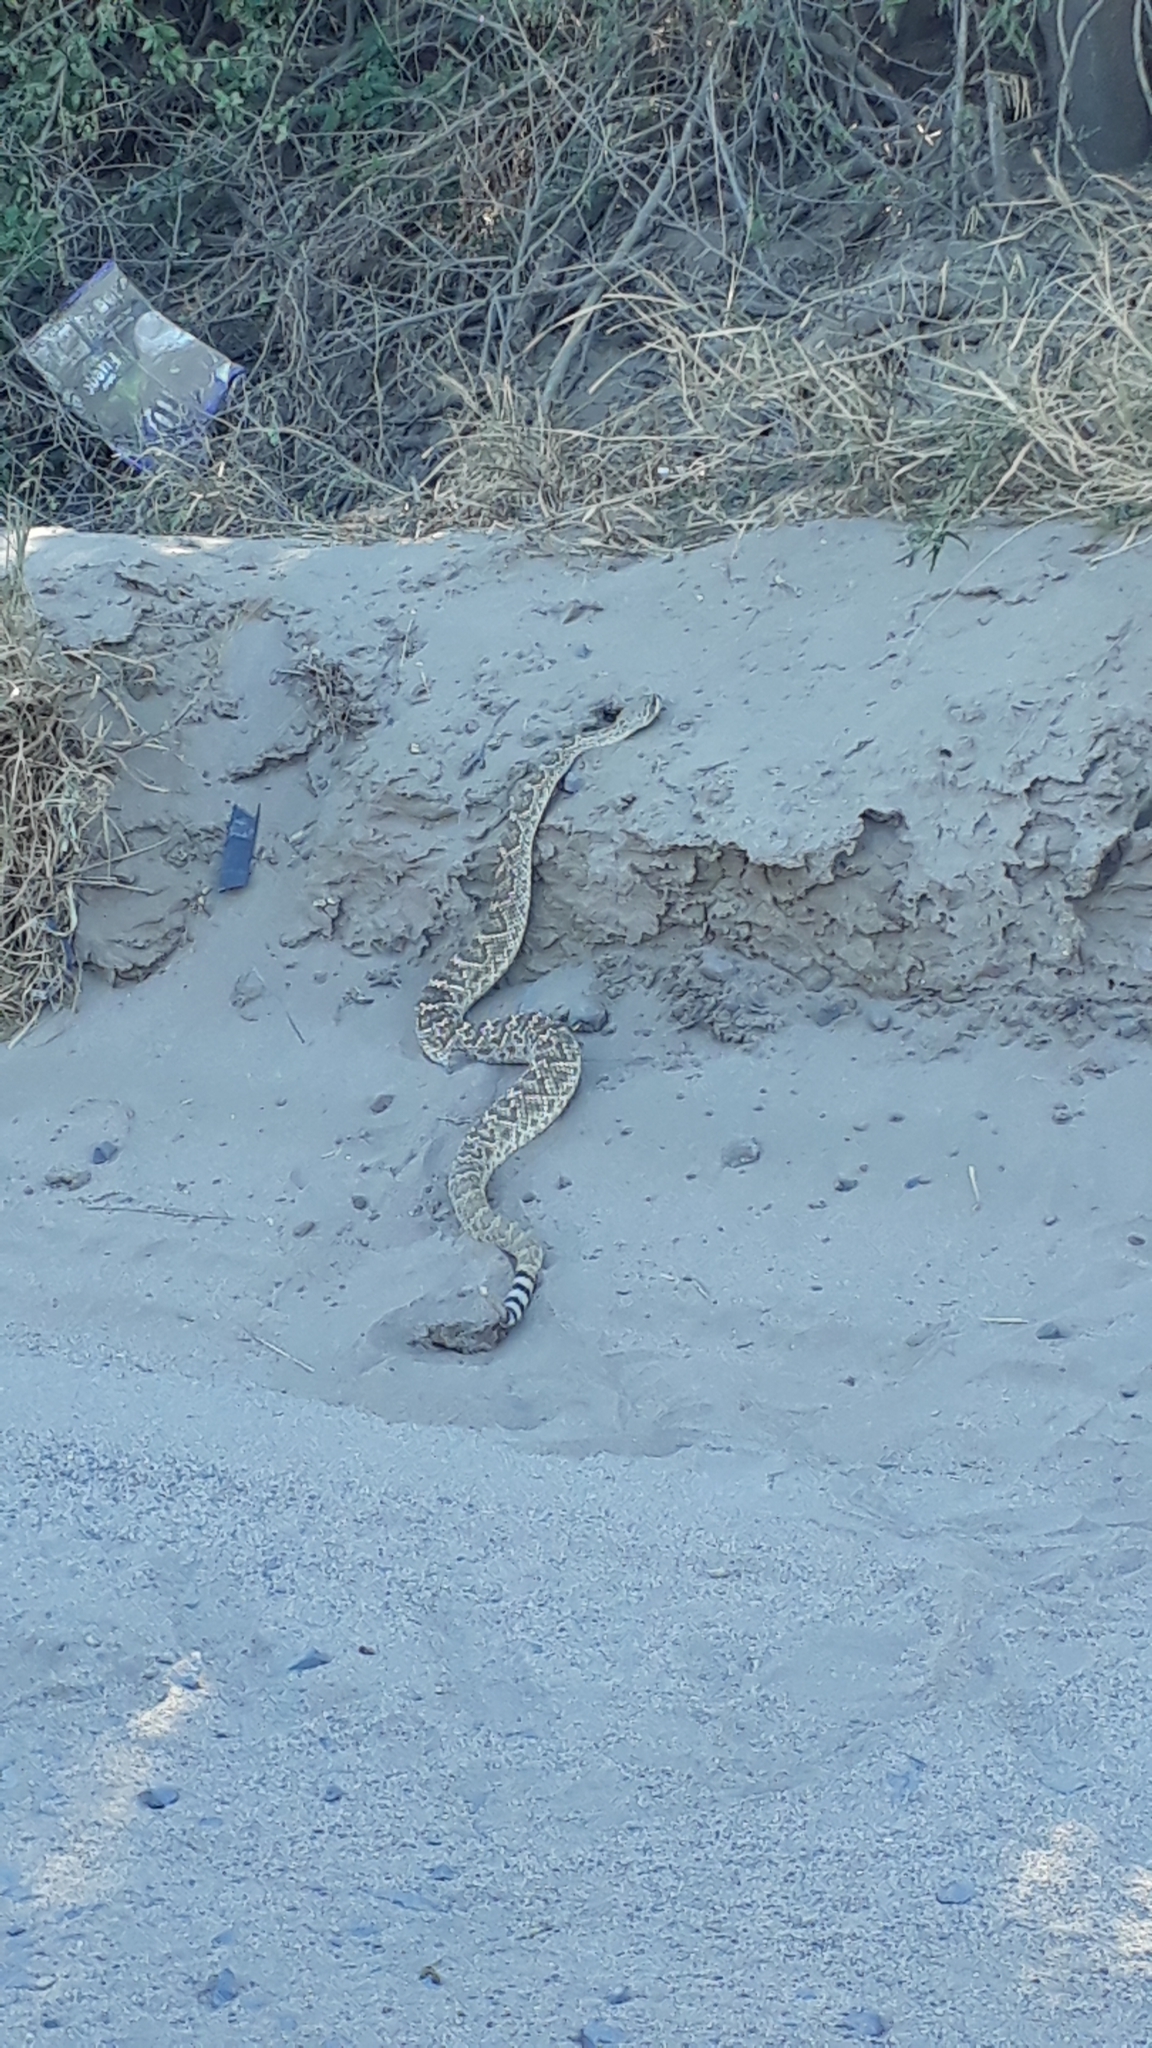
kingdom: Animalia
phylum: Chordata
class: Squamata
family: Viperidae
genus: Crotalus
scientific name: Crotalus ruber
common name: Red diamond rattlesnake
